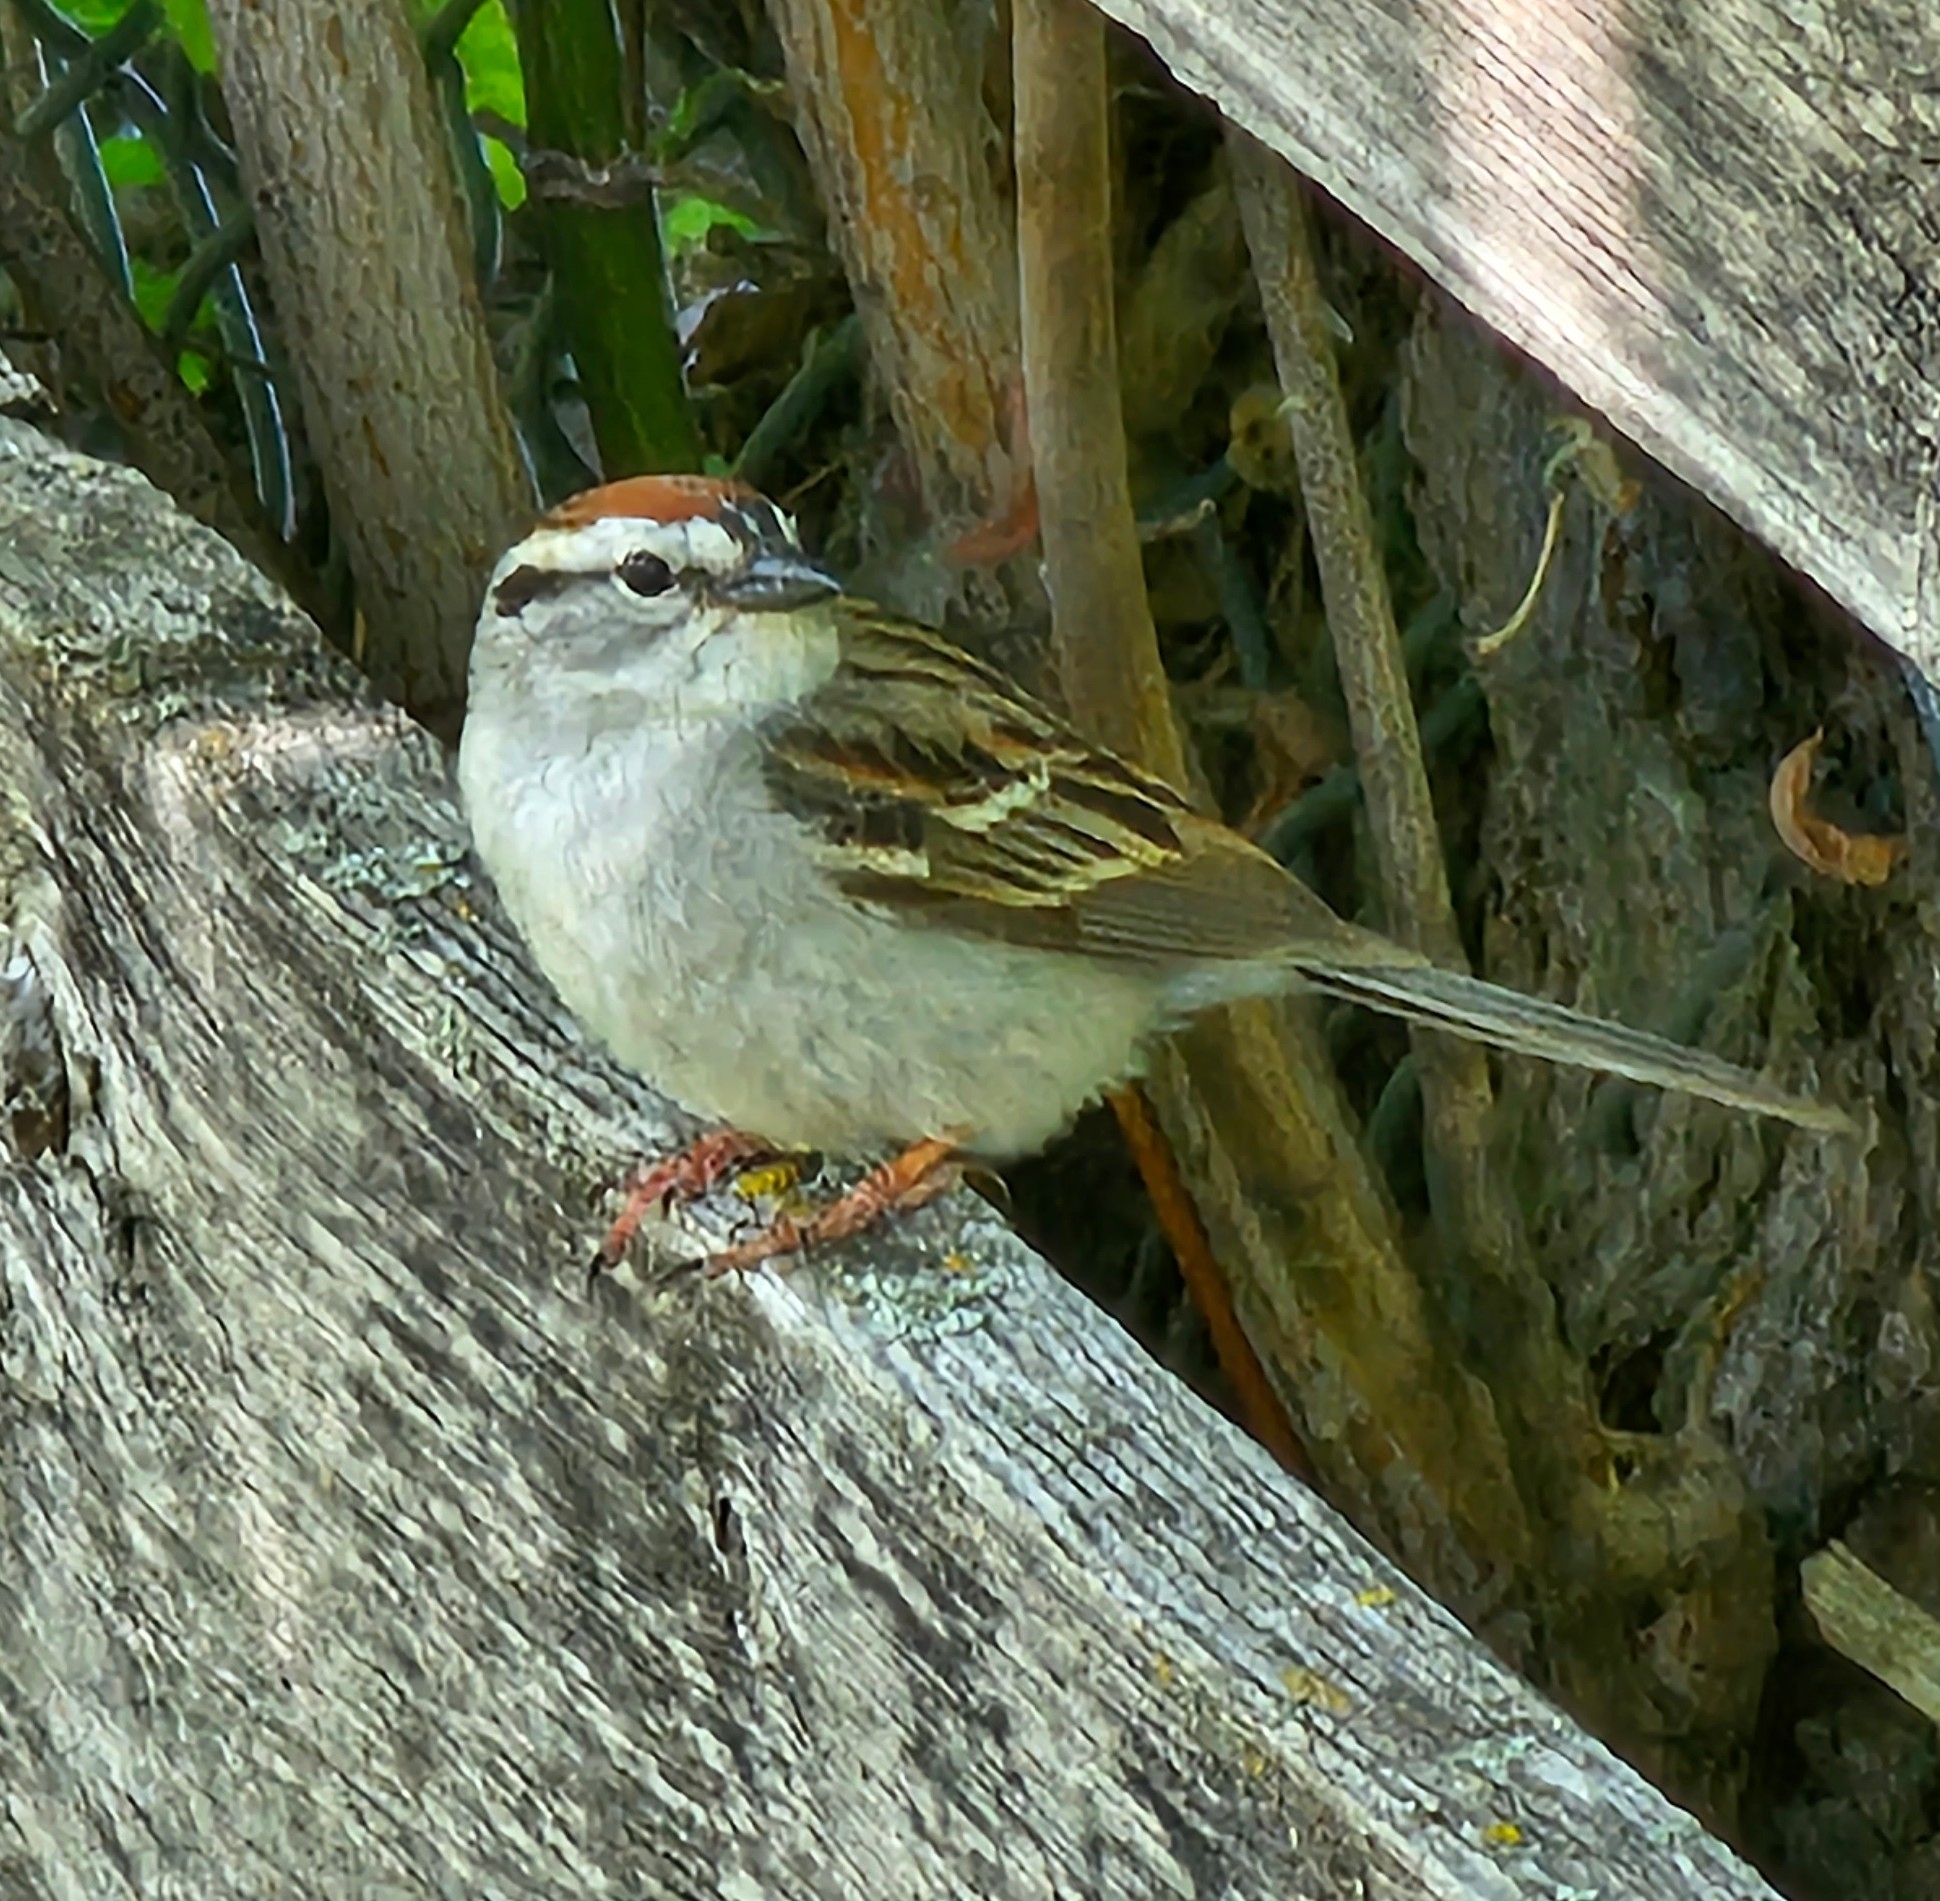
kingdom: Animalia
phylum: Chordata
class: Aves
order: Passeriformes
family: Passerellidae
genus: Spizella
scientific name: Spizella passerina
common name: Chipping sparrow
